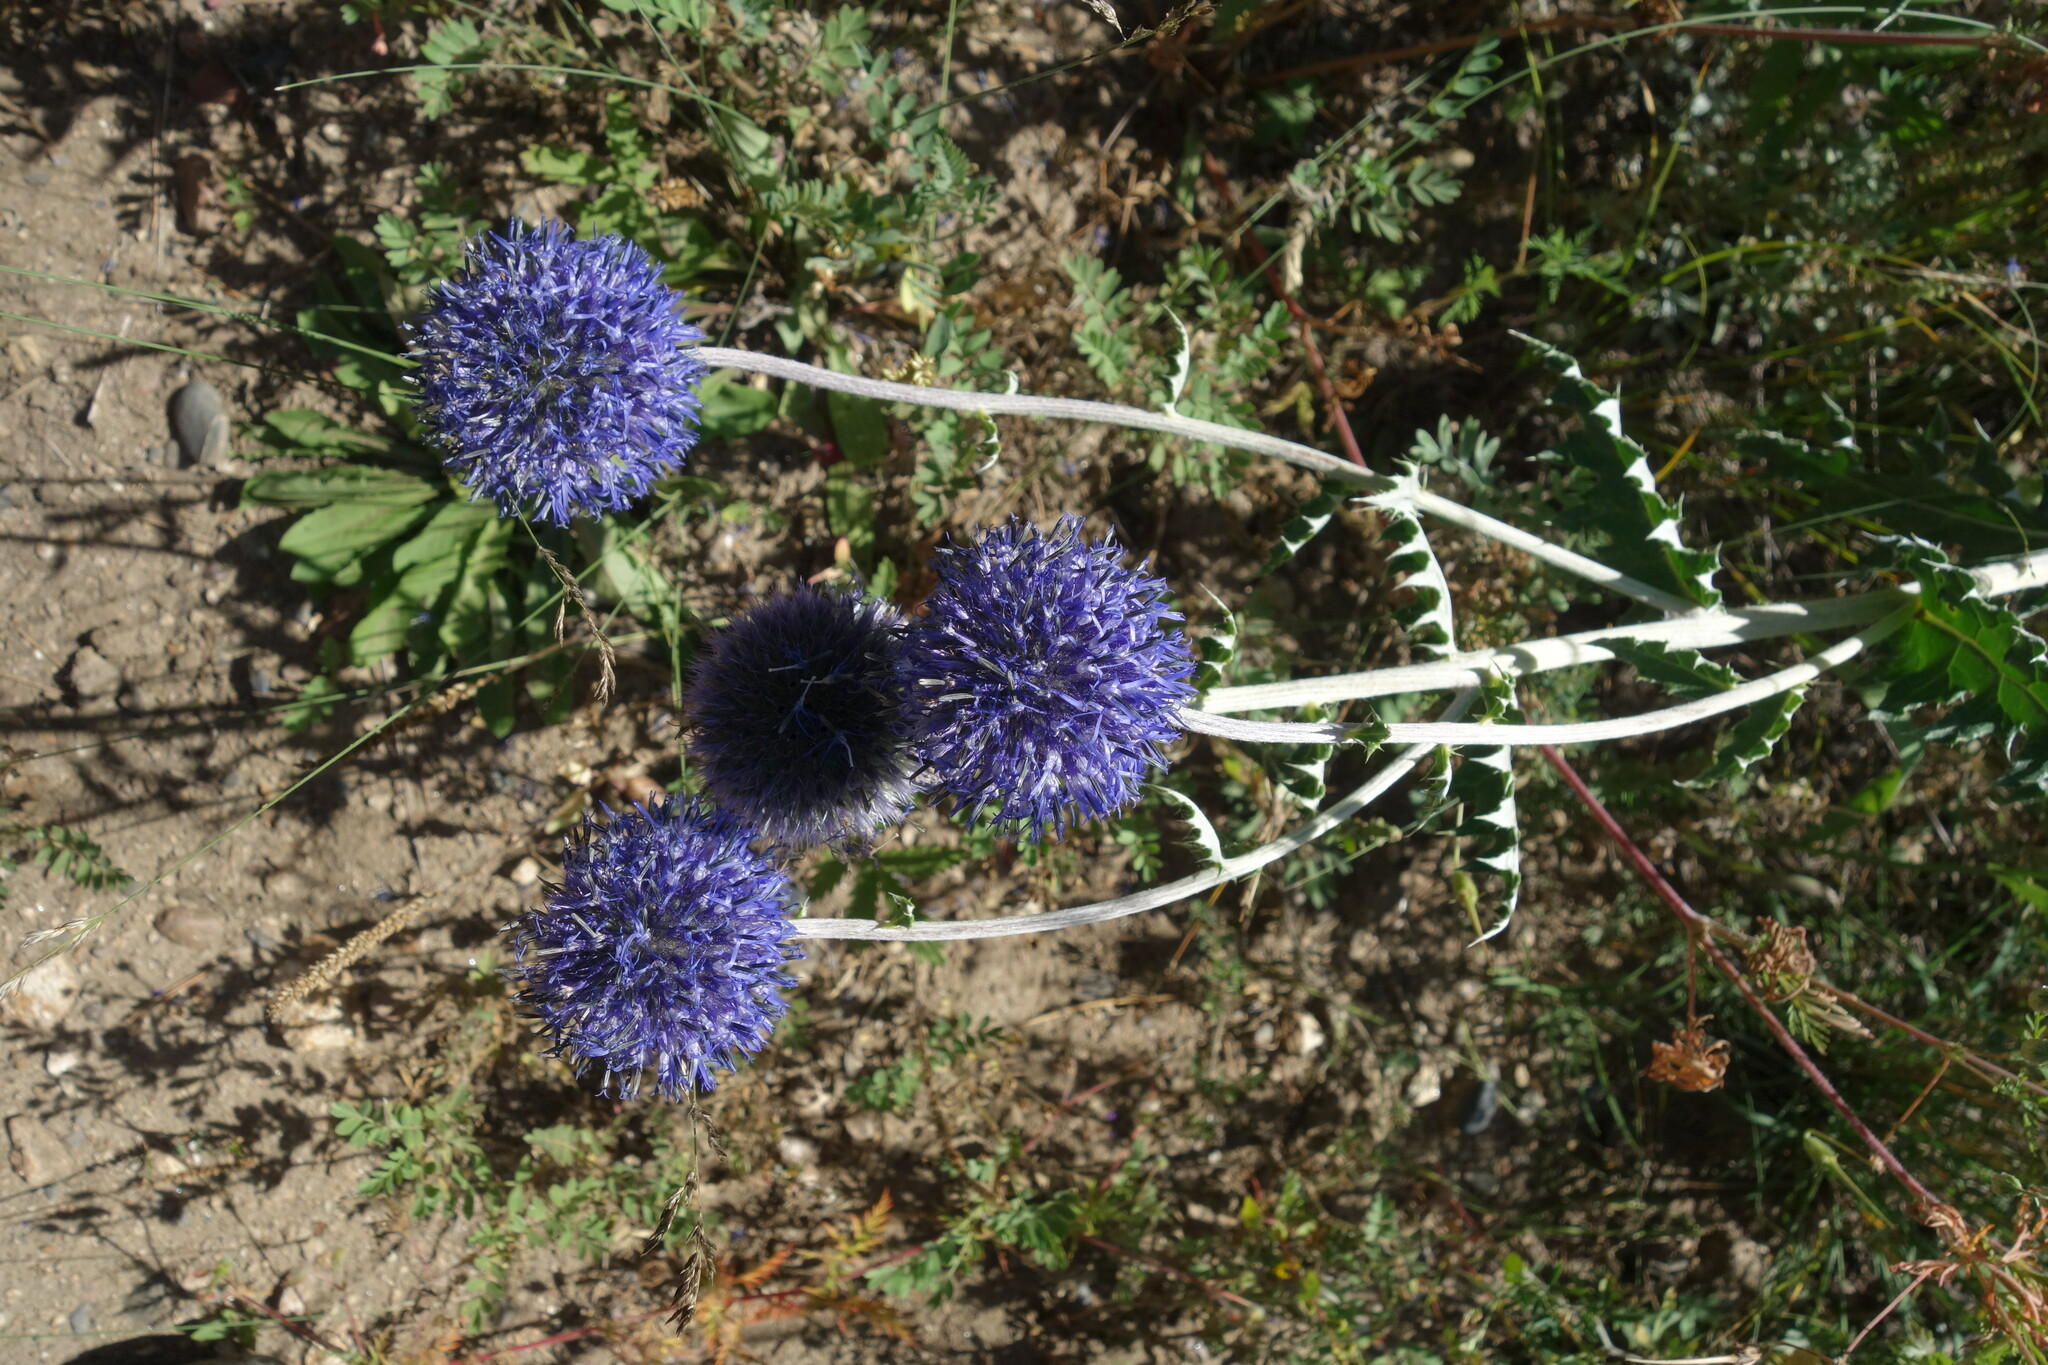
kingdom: Plantae
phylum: Tracheophyta
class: Magnoliopsida
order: Asterales
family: Asteraceae
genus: Echinops
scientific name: Echinops davuricus
